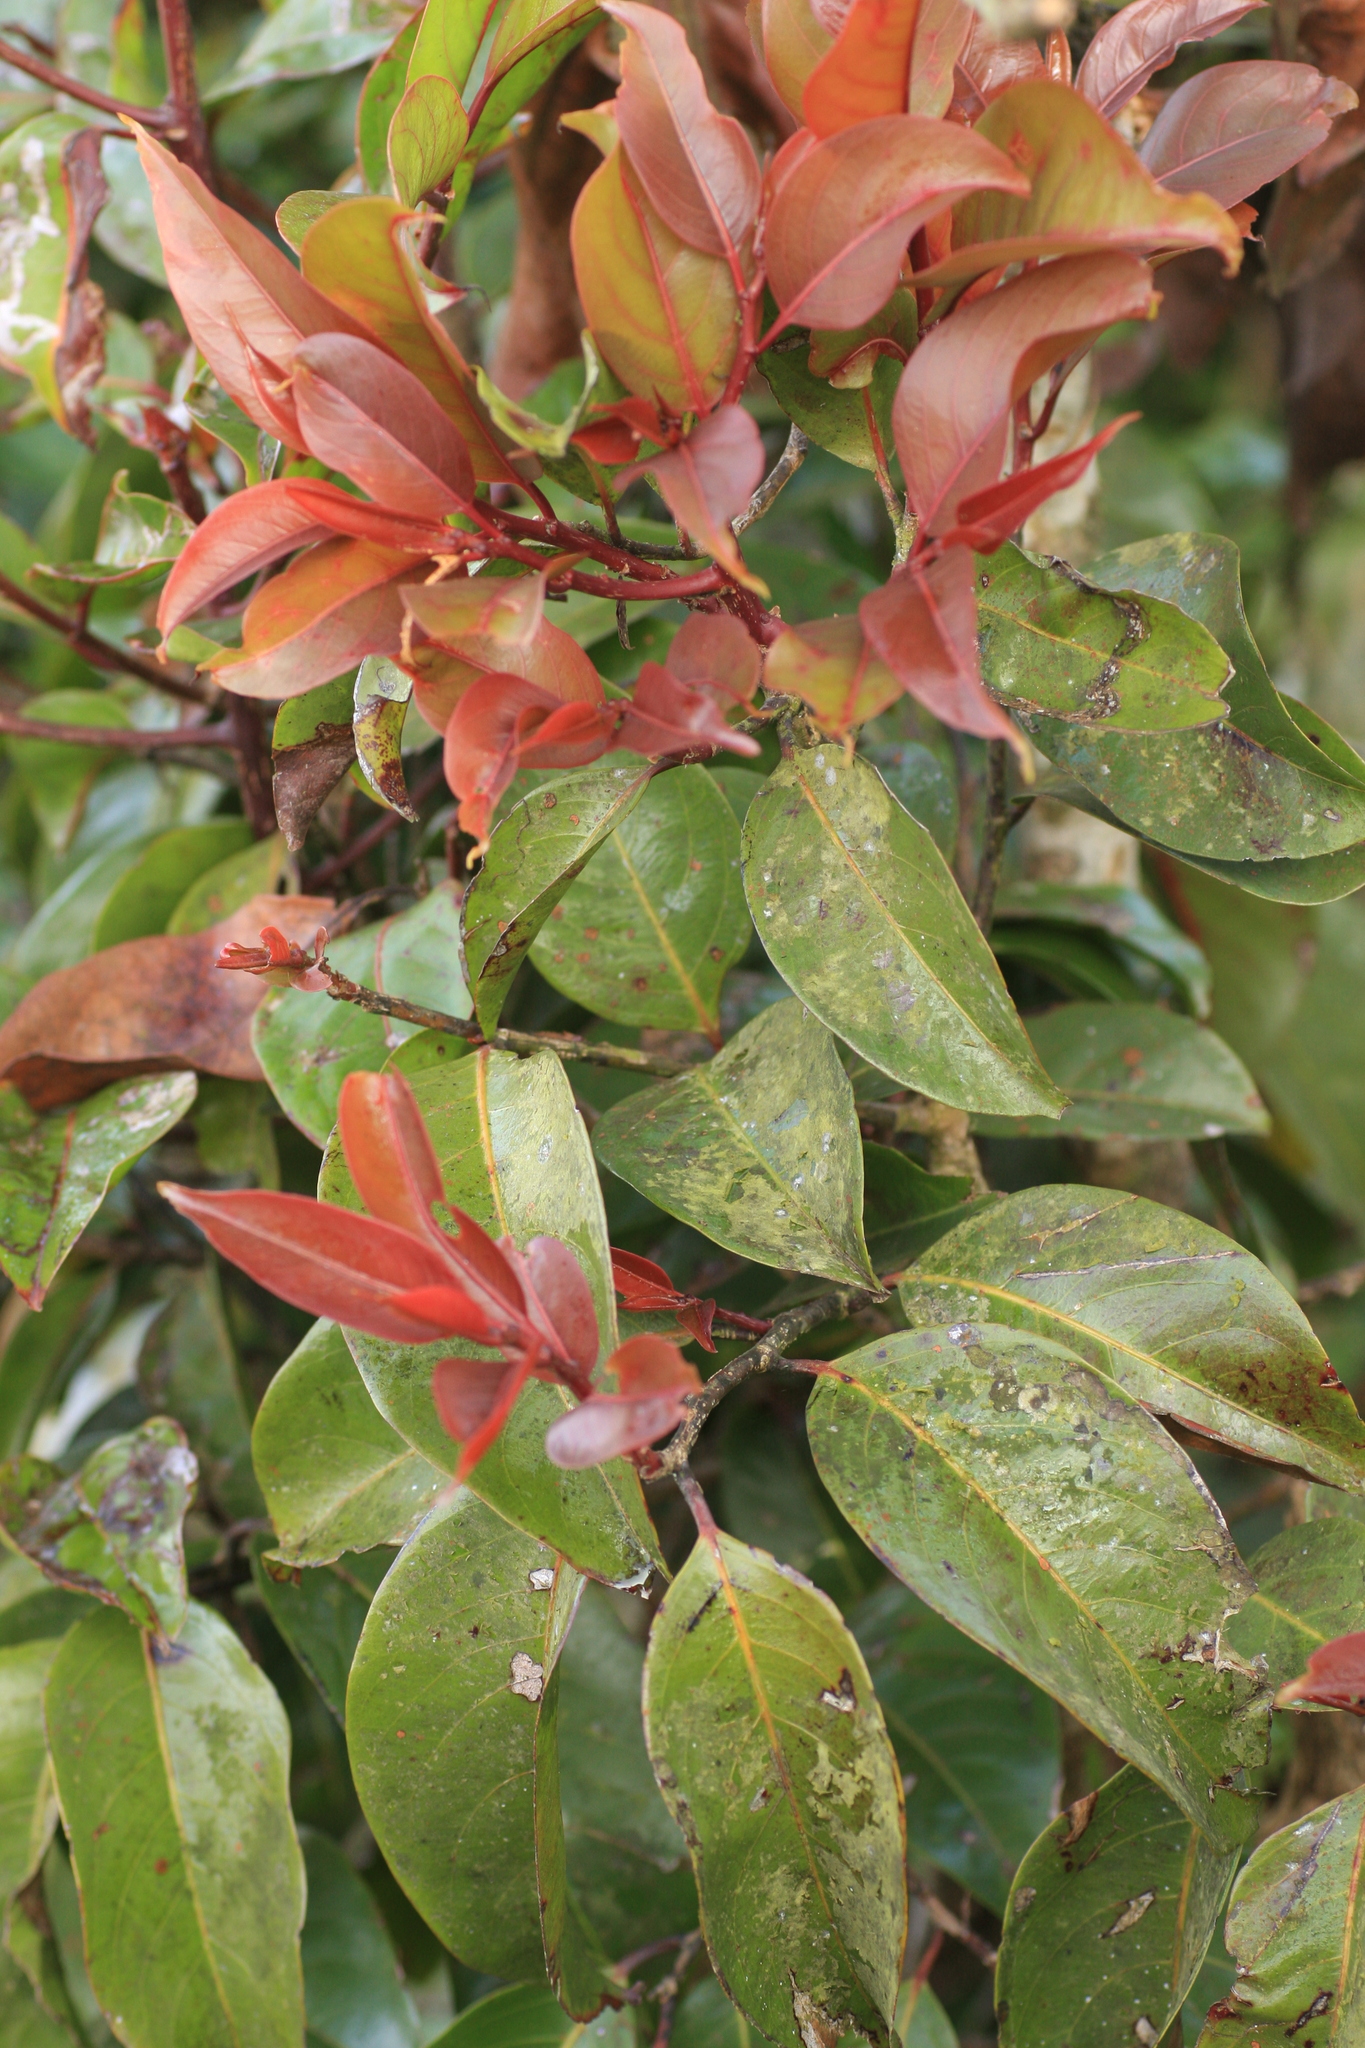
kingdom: Plantae
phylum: Tracheophyta
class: Magnoliopsida
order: Malpighiales
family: Salicaceae
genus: Casearia
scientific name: Casearia graveolens
